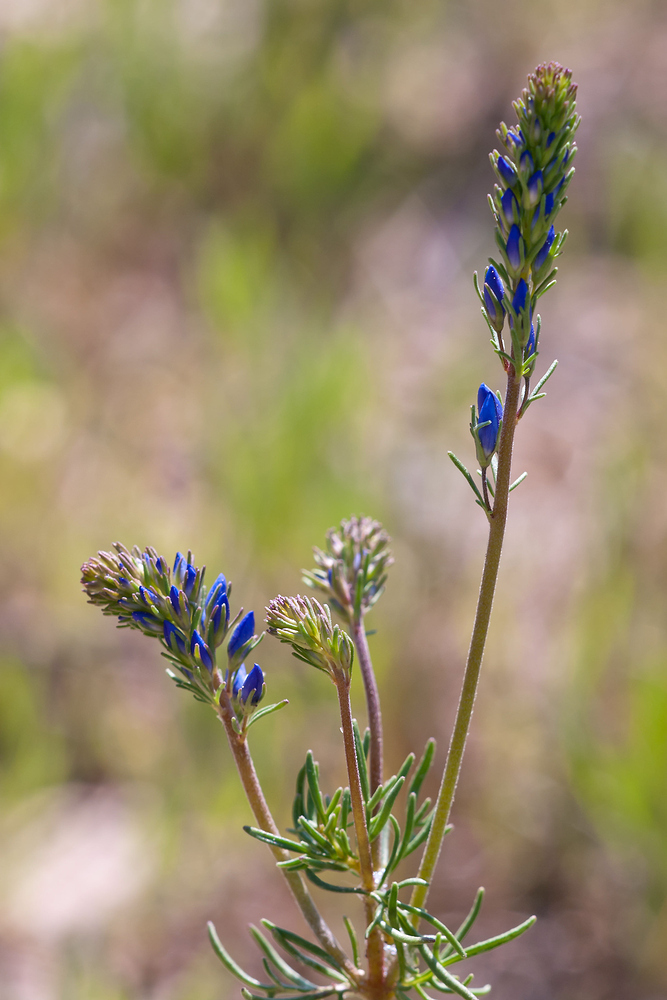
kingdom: Plantae
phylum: Tracheophyta
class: Magnoliopsida
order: Lamiales
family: Plantaginaceae
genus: Veronica
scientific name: Veronica tenuifolia
